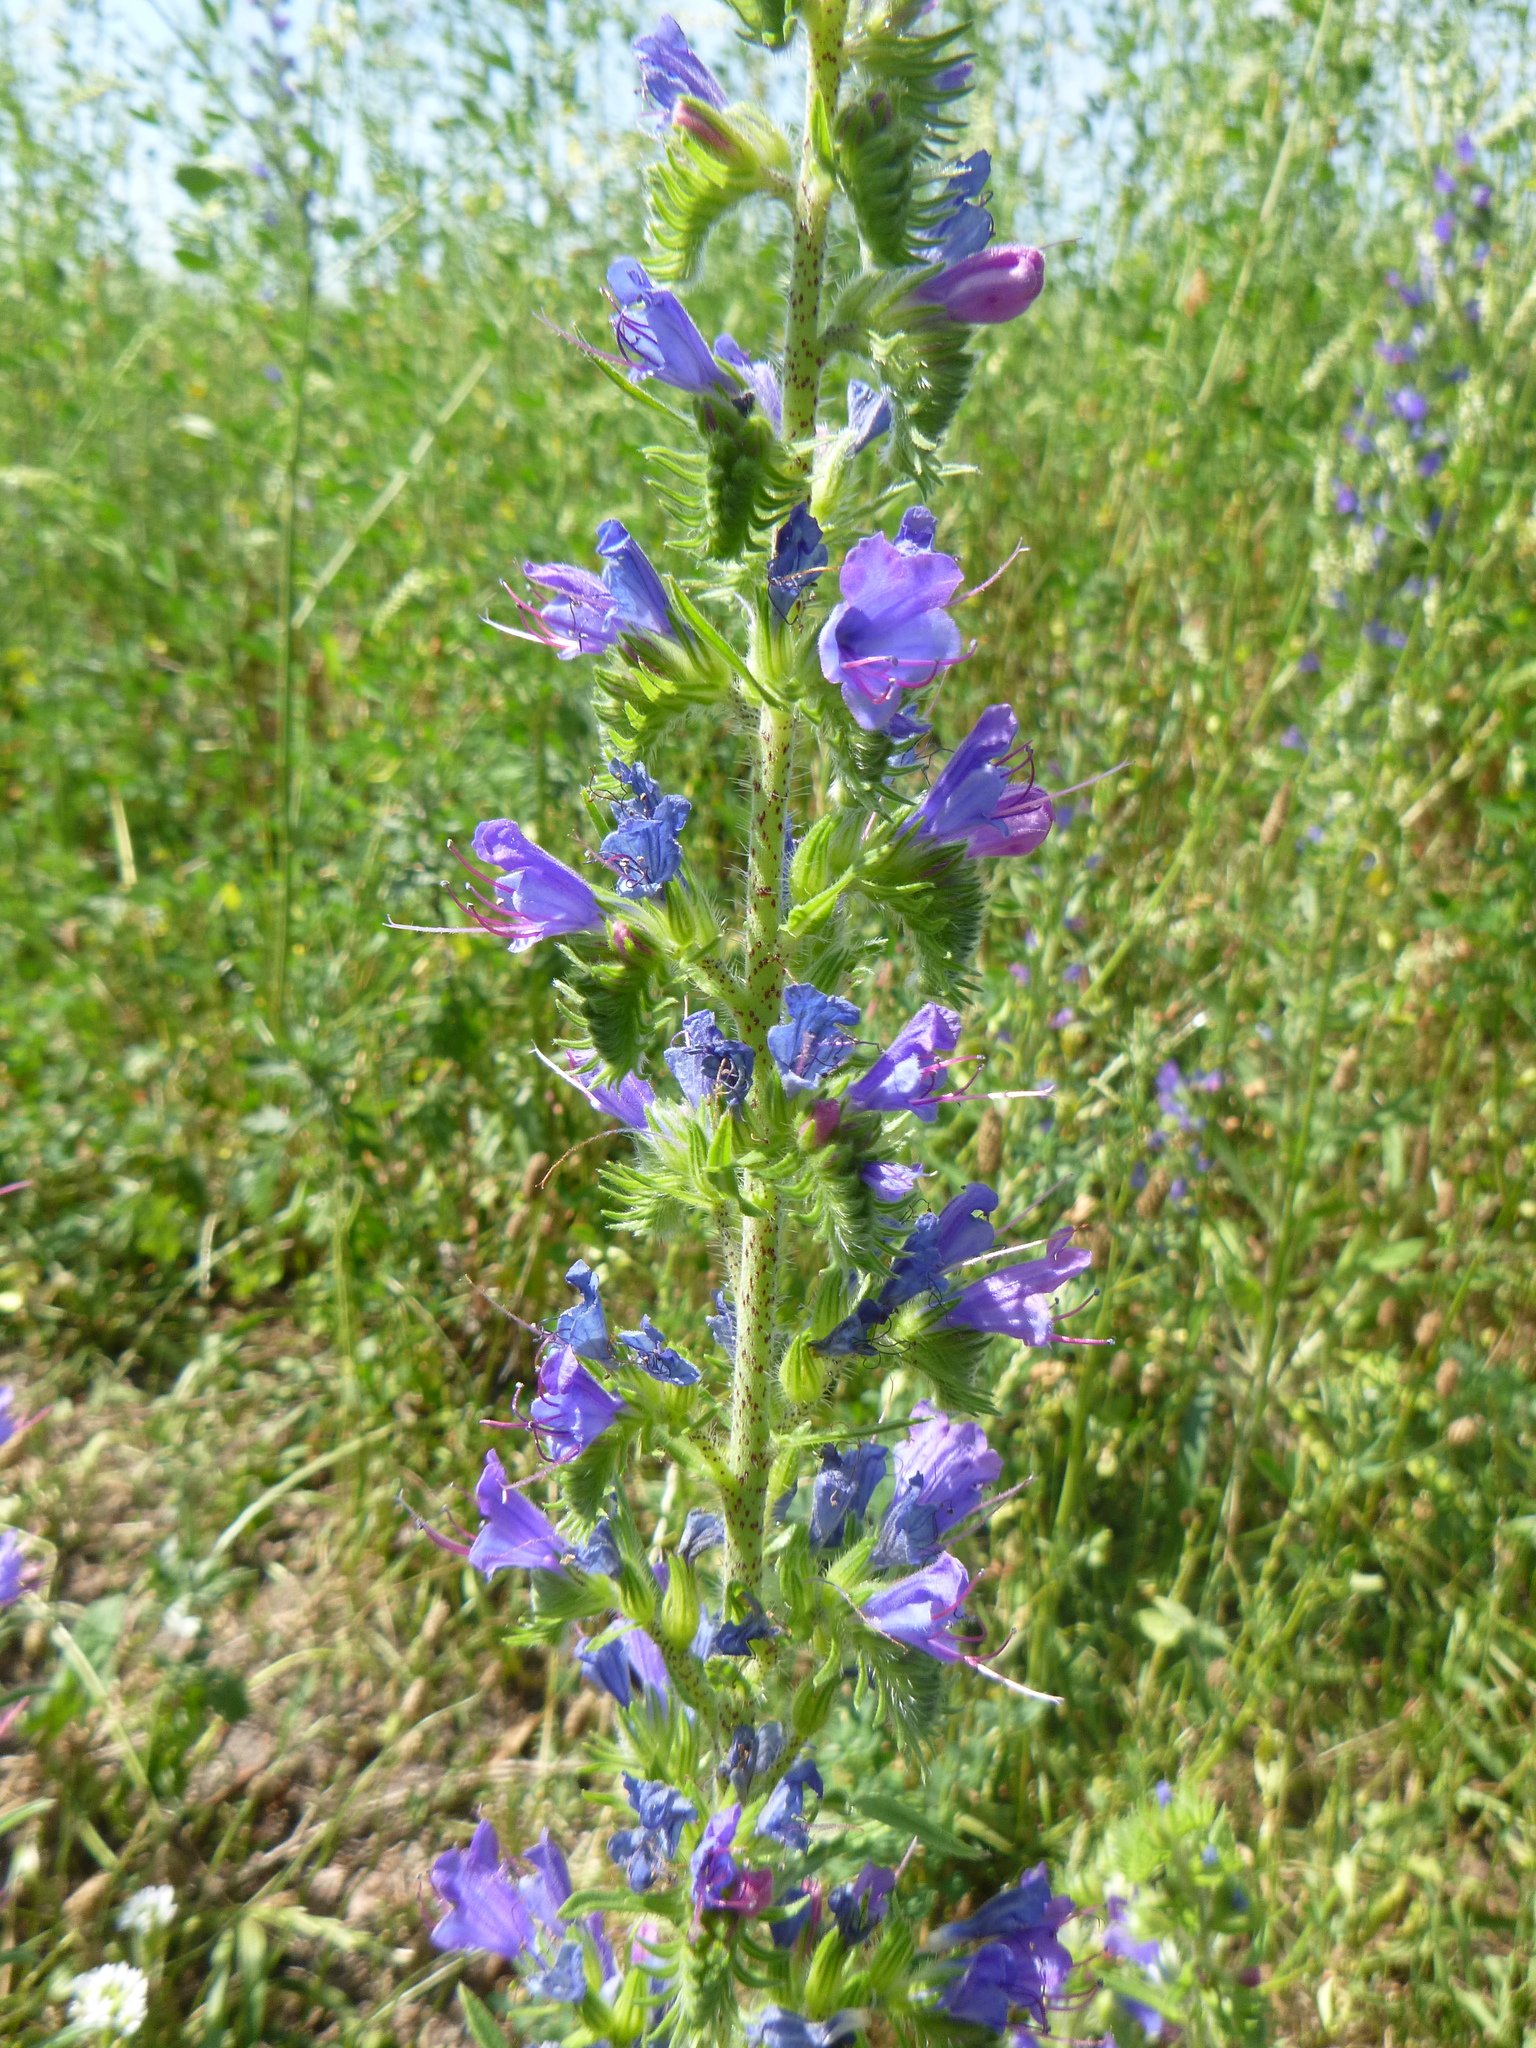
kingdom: Plantae
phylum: Tracheophyta
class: Magnoliopsida
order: Boraginales
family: Boraginaceae
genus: Echium
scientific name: Echium vulgare
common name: Common viper's bugloss
